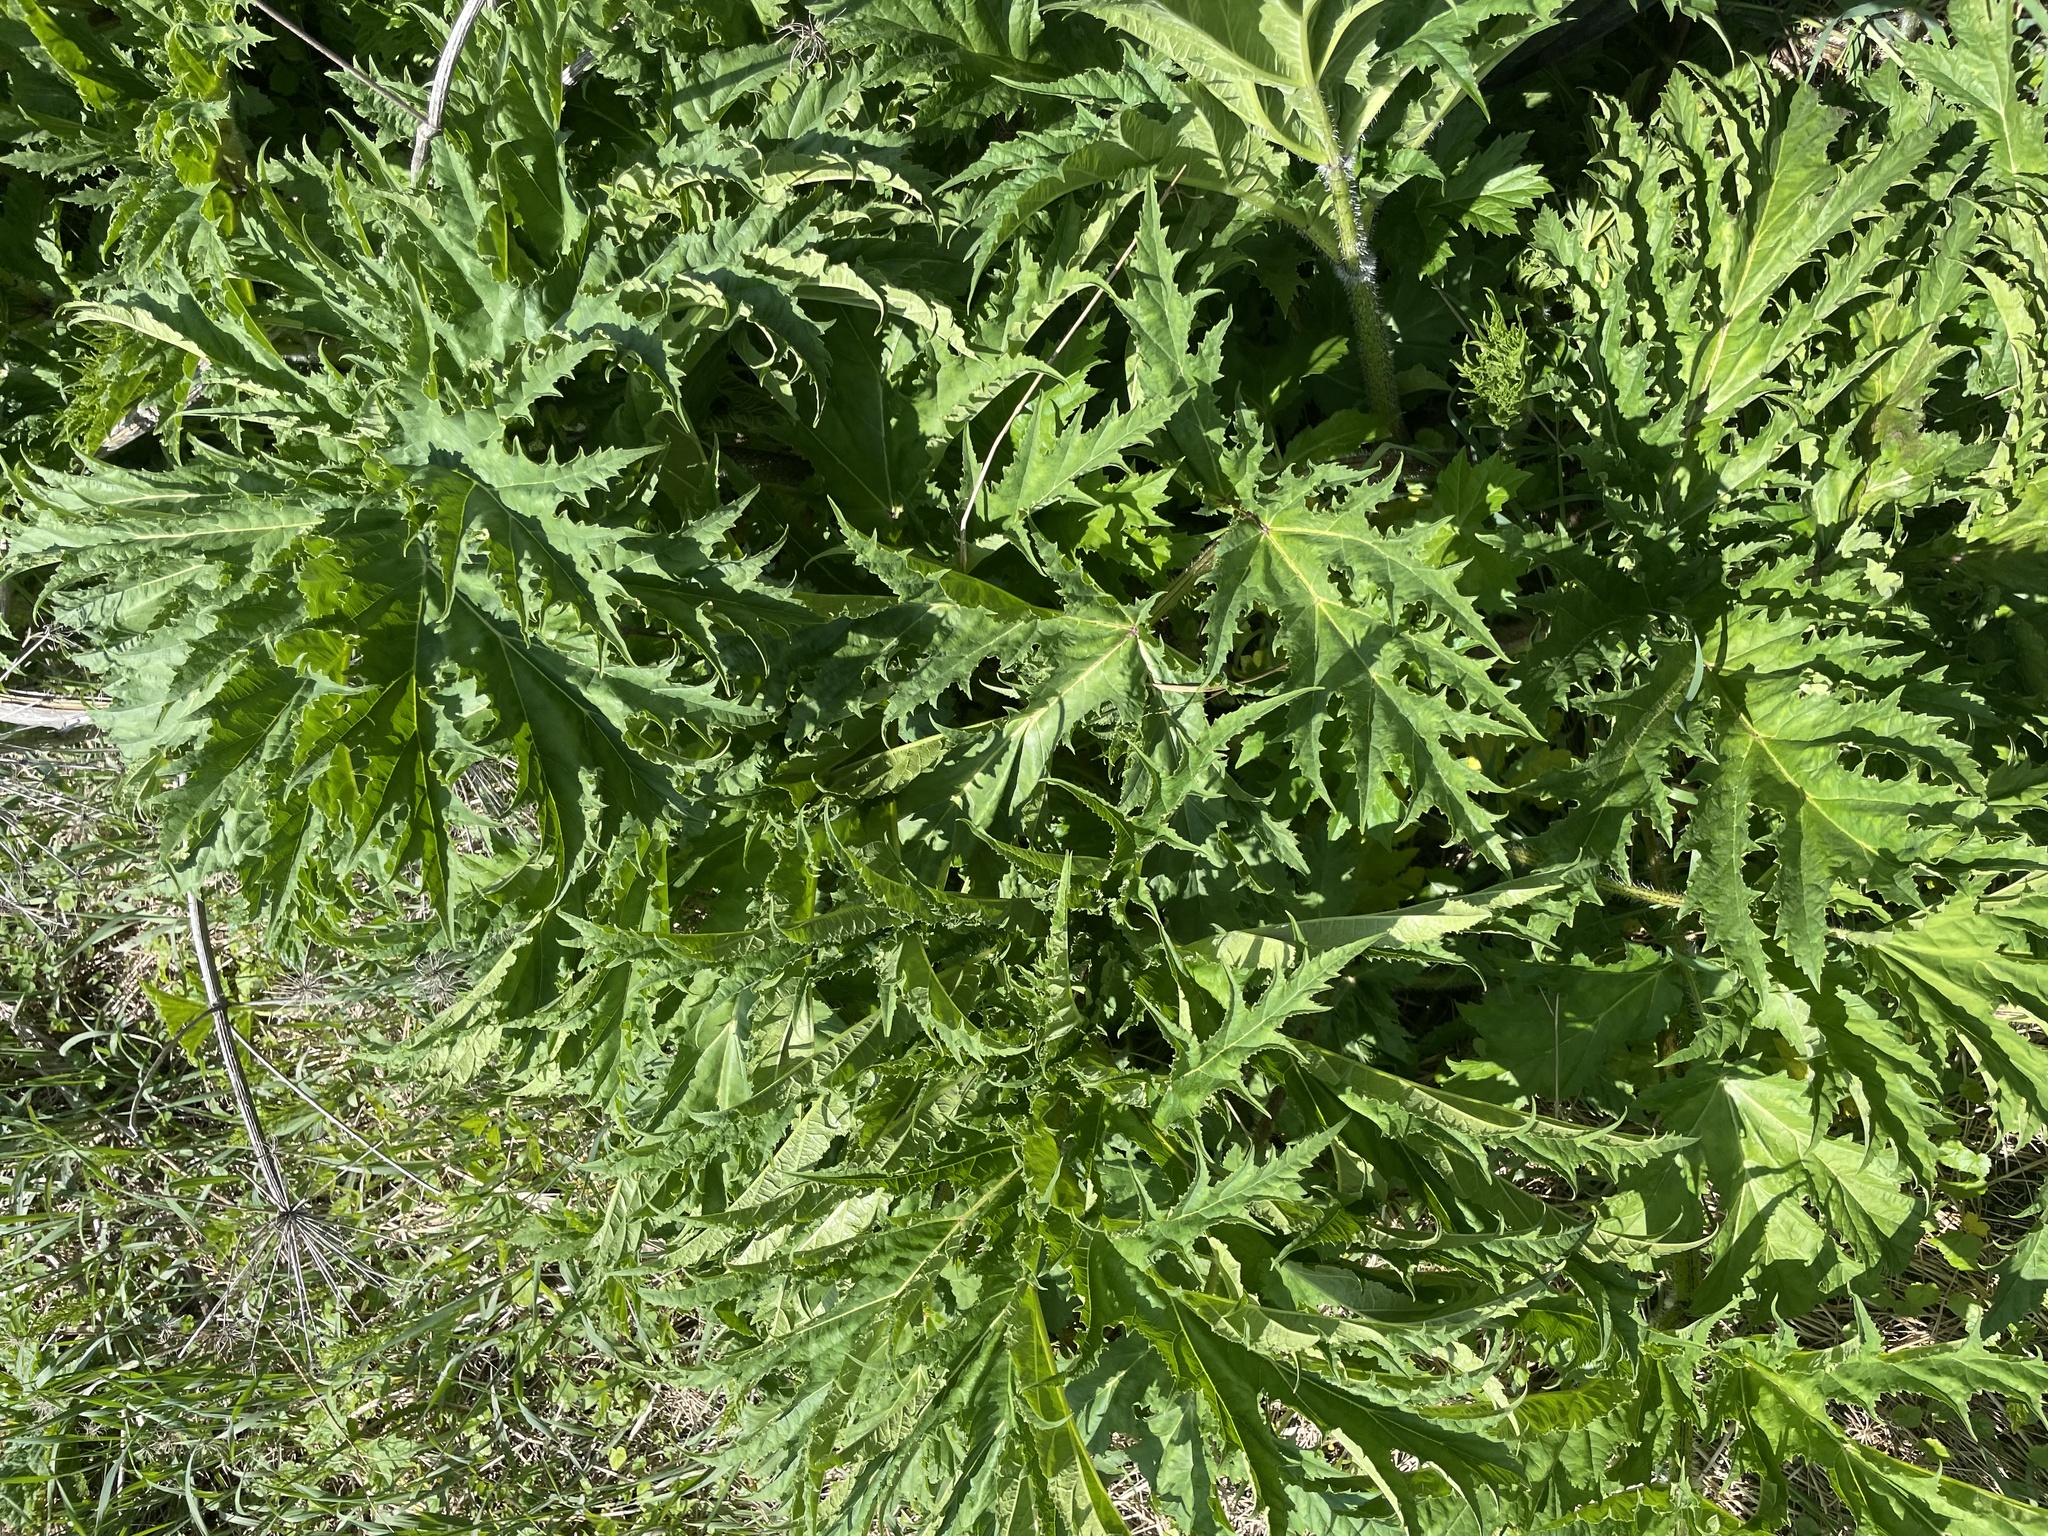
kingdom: Plantae
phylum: Tracheophyta
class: Magnoliopsida
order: Apiales
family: Apiaceae
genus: Heracleum
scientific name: Heracleum mantegazzianum
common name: Giant hogweed
